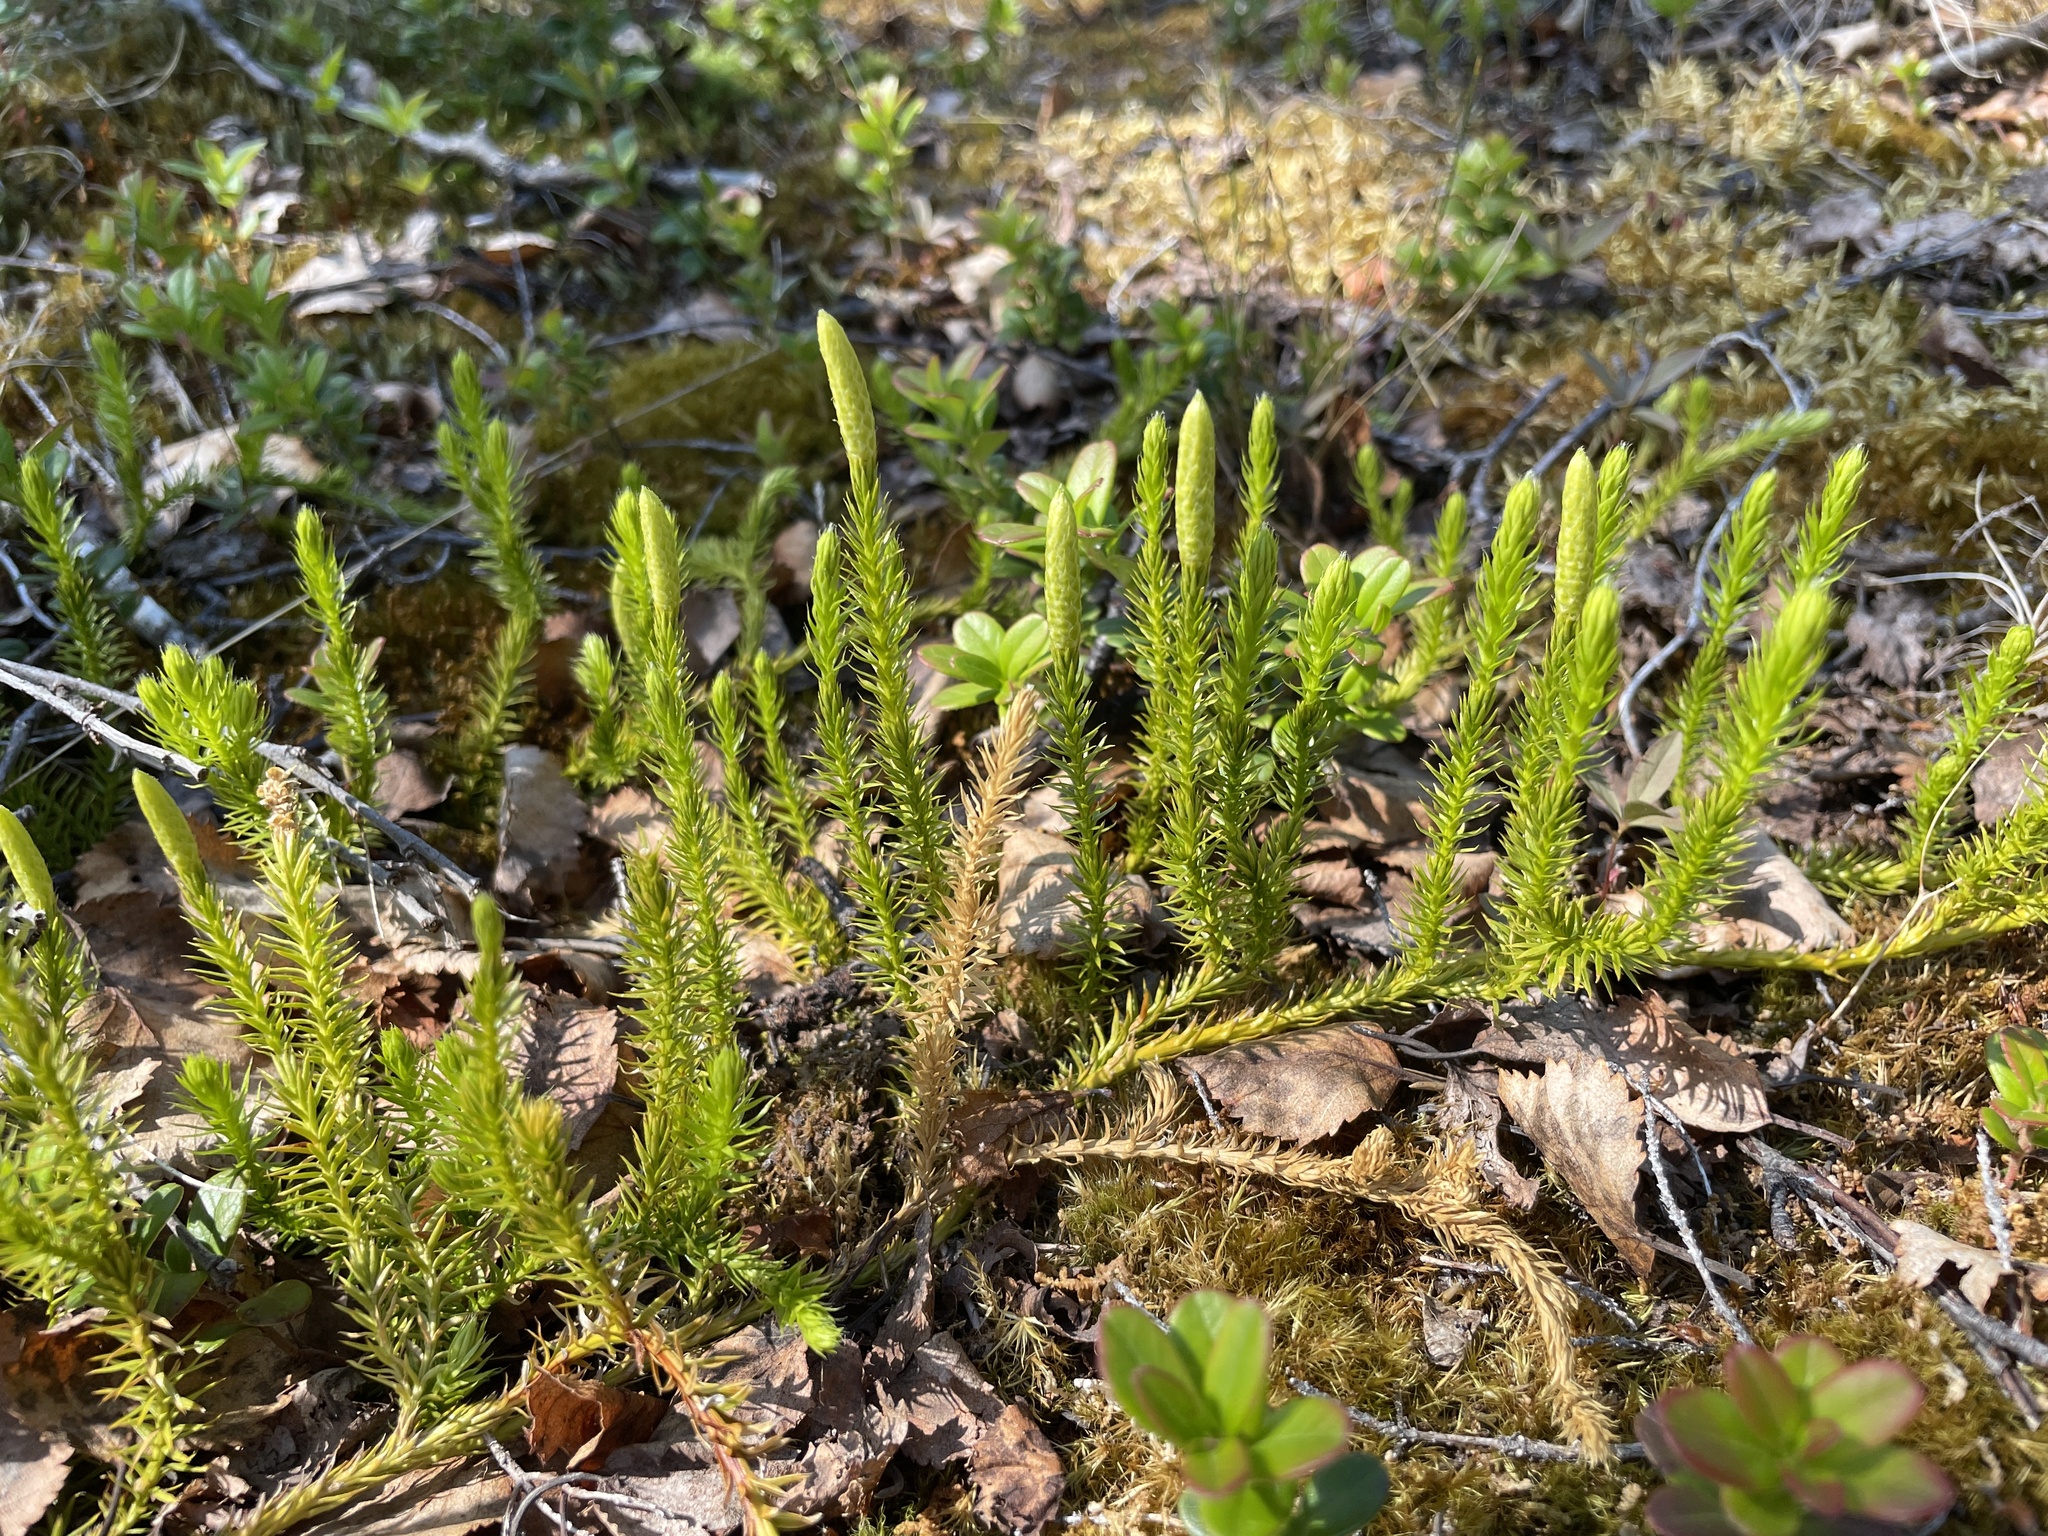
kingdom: Plantae
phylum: Tracheophyta
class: Lycopodiopsida
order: Lycopodiales
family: Lycopodiaceae
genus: Spinulum
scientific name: Spinulum annotinum
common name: Interrupted club-moss
